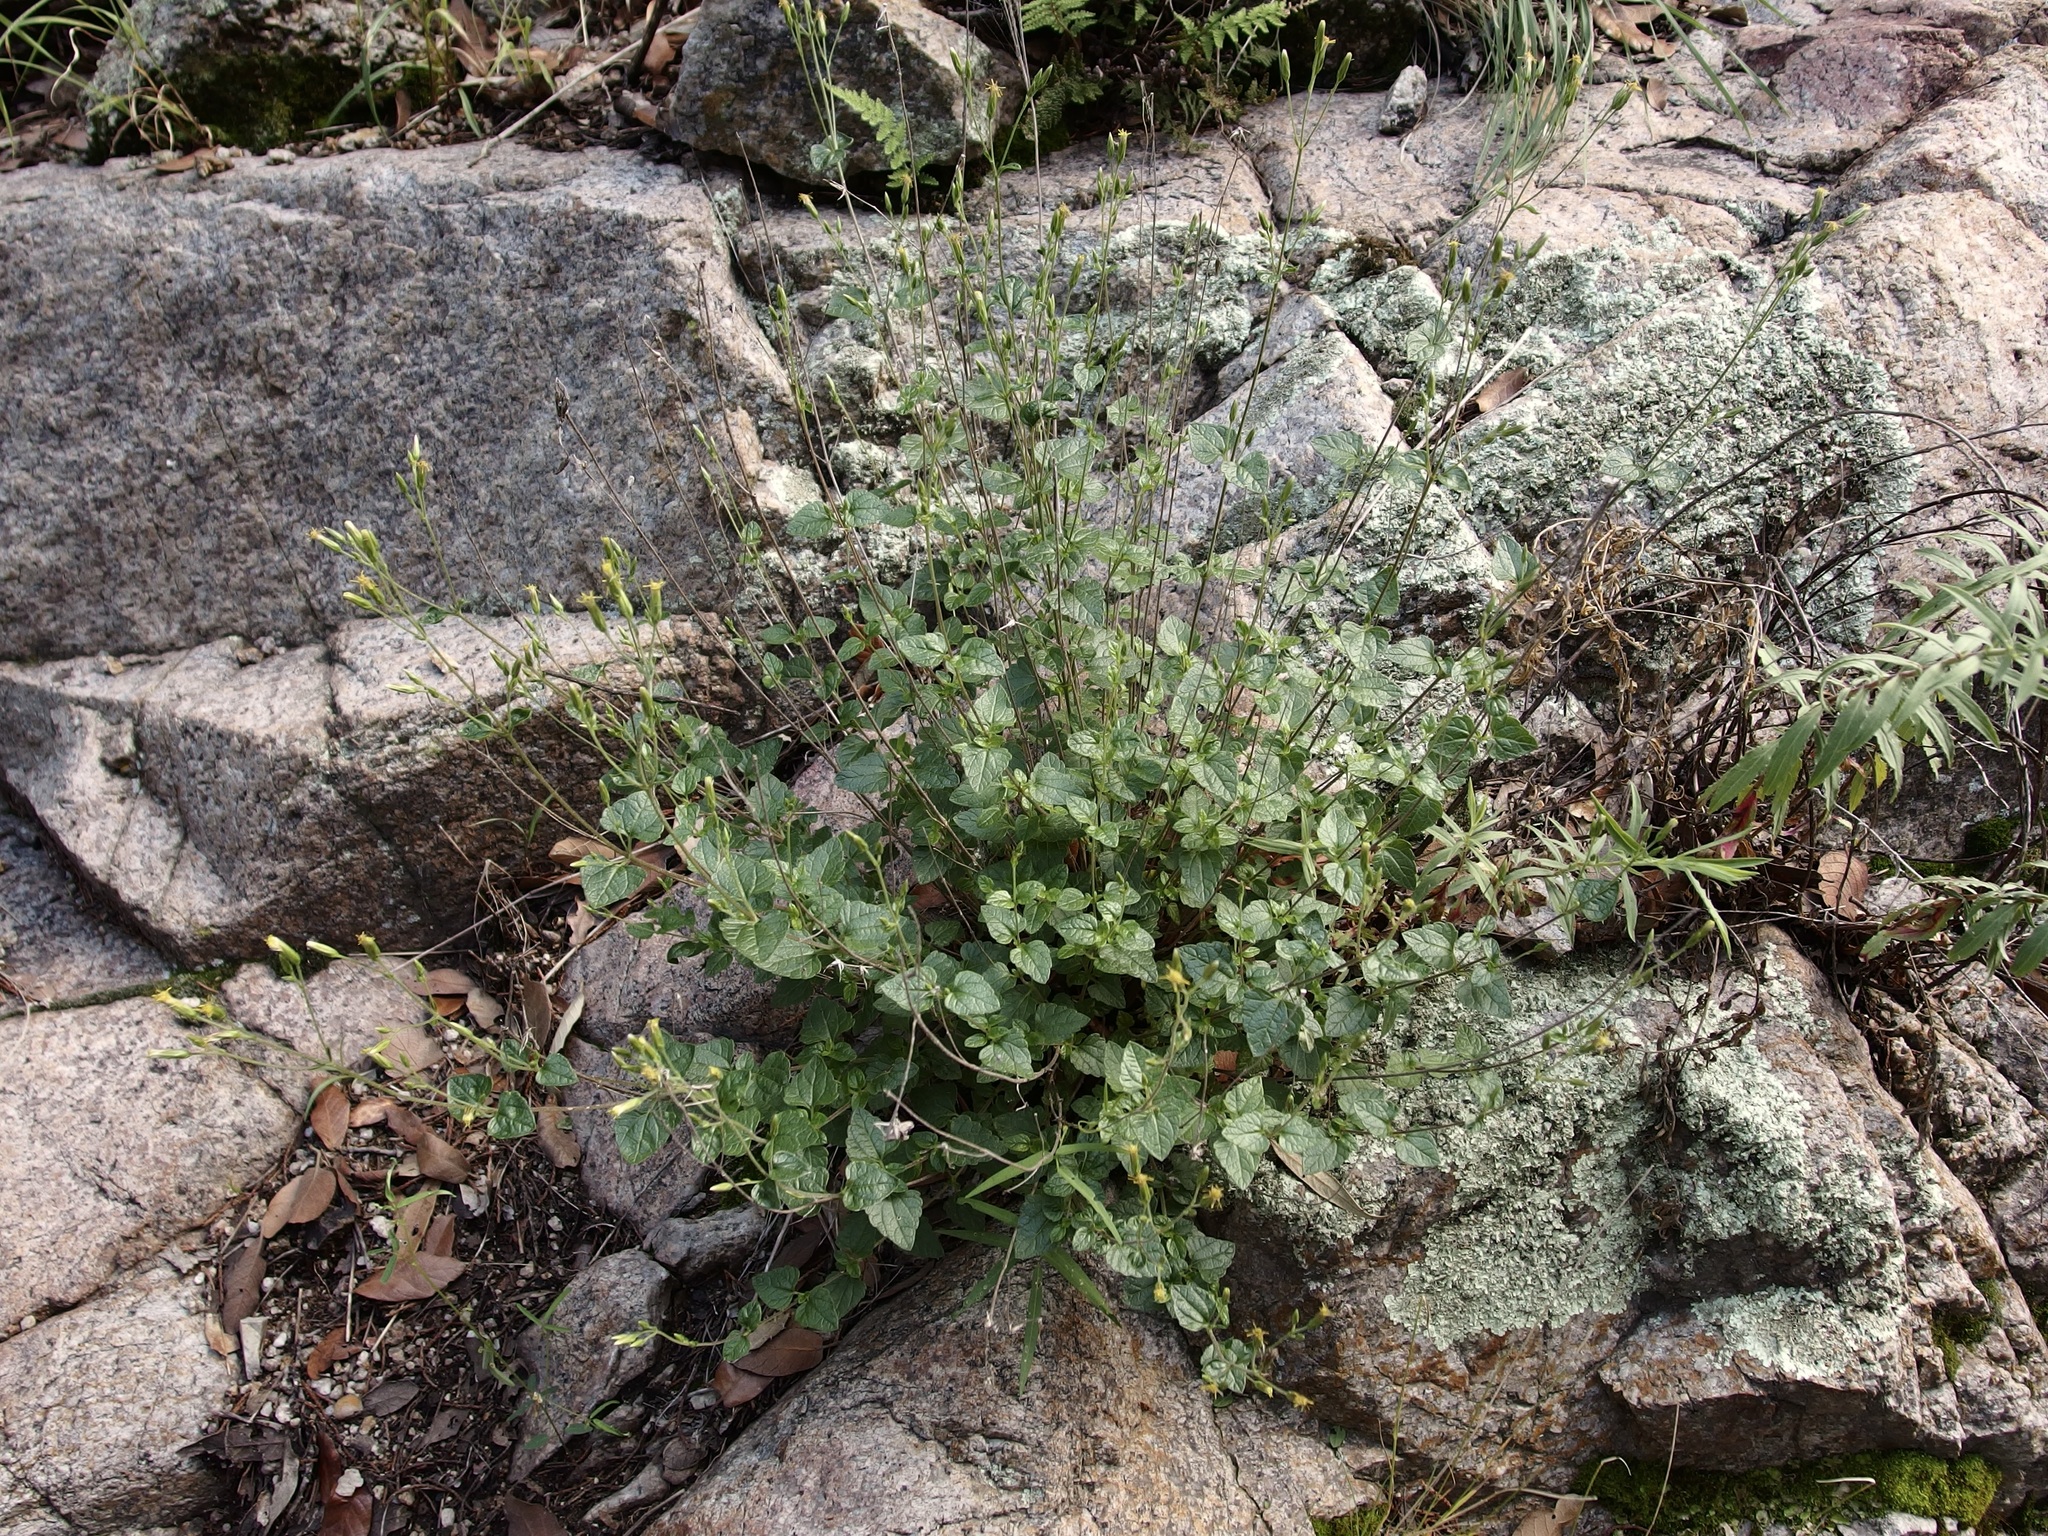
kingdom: Plantae
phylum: Tracheophyta
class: Magnoliopsida
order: Asterales
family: Asteraceae
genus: Brickellia
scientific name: Brickellia parvula
